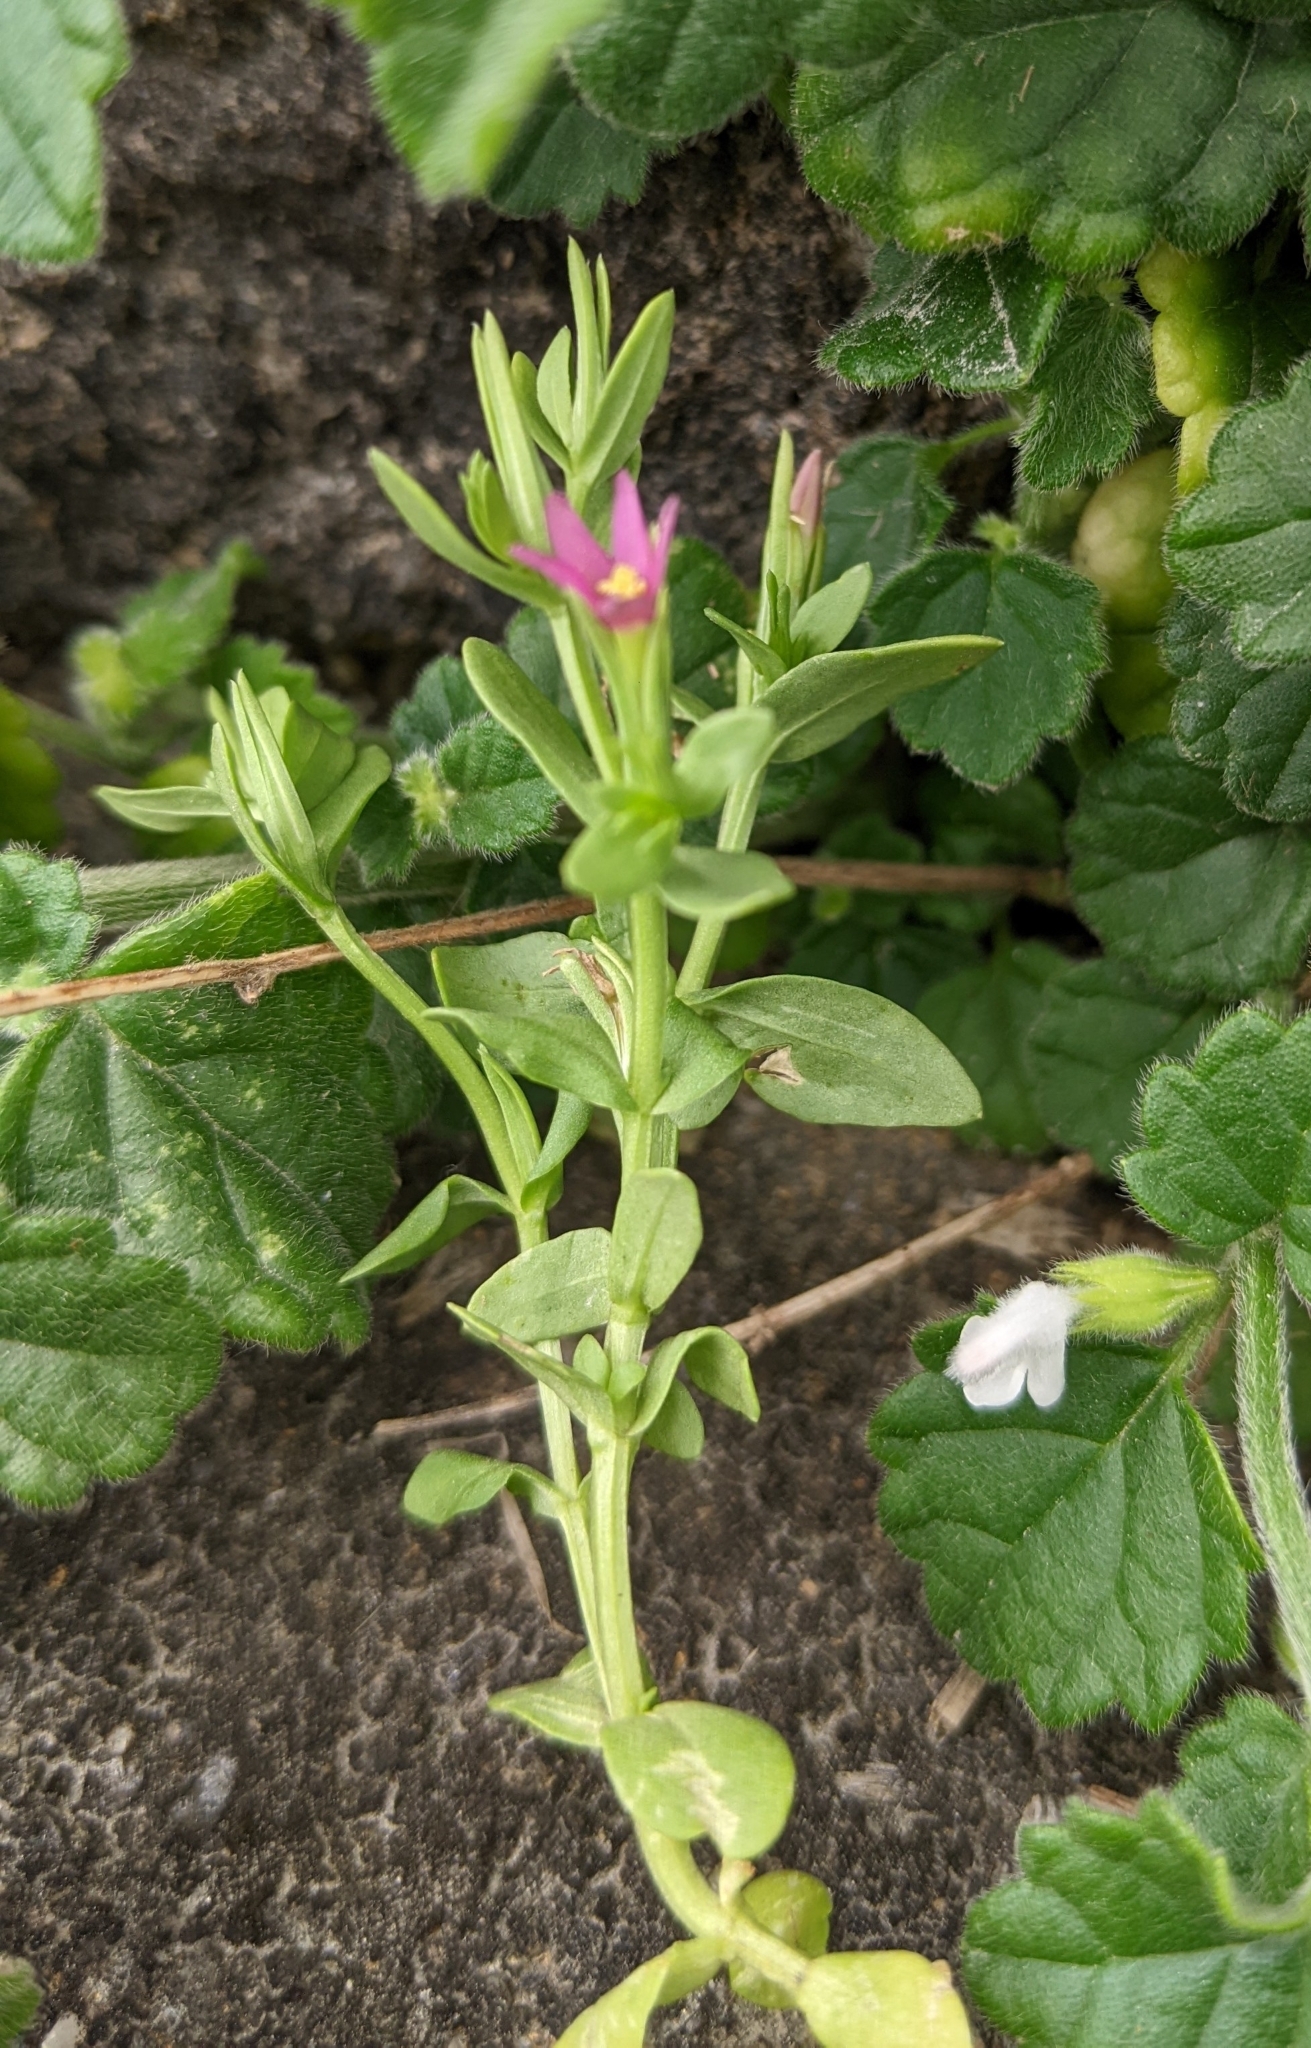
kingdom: Plantae
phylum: Tracheophyta
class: Magnoliopsida
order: Gentianales
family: Gentianaceae
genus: Schenkia
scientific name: Schenkia japonica
